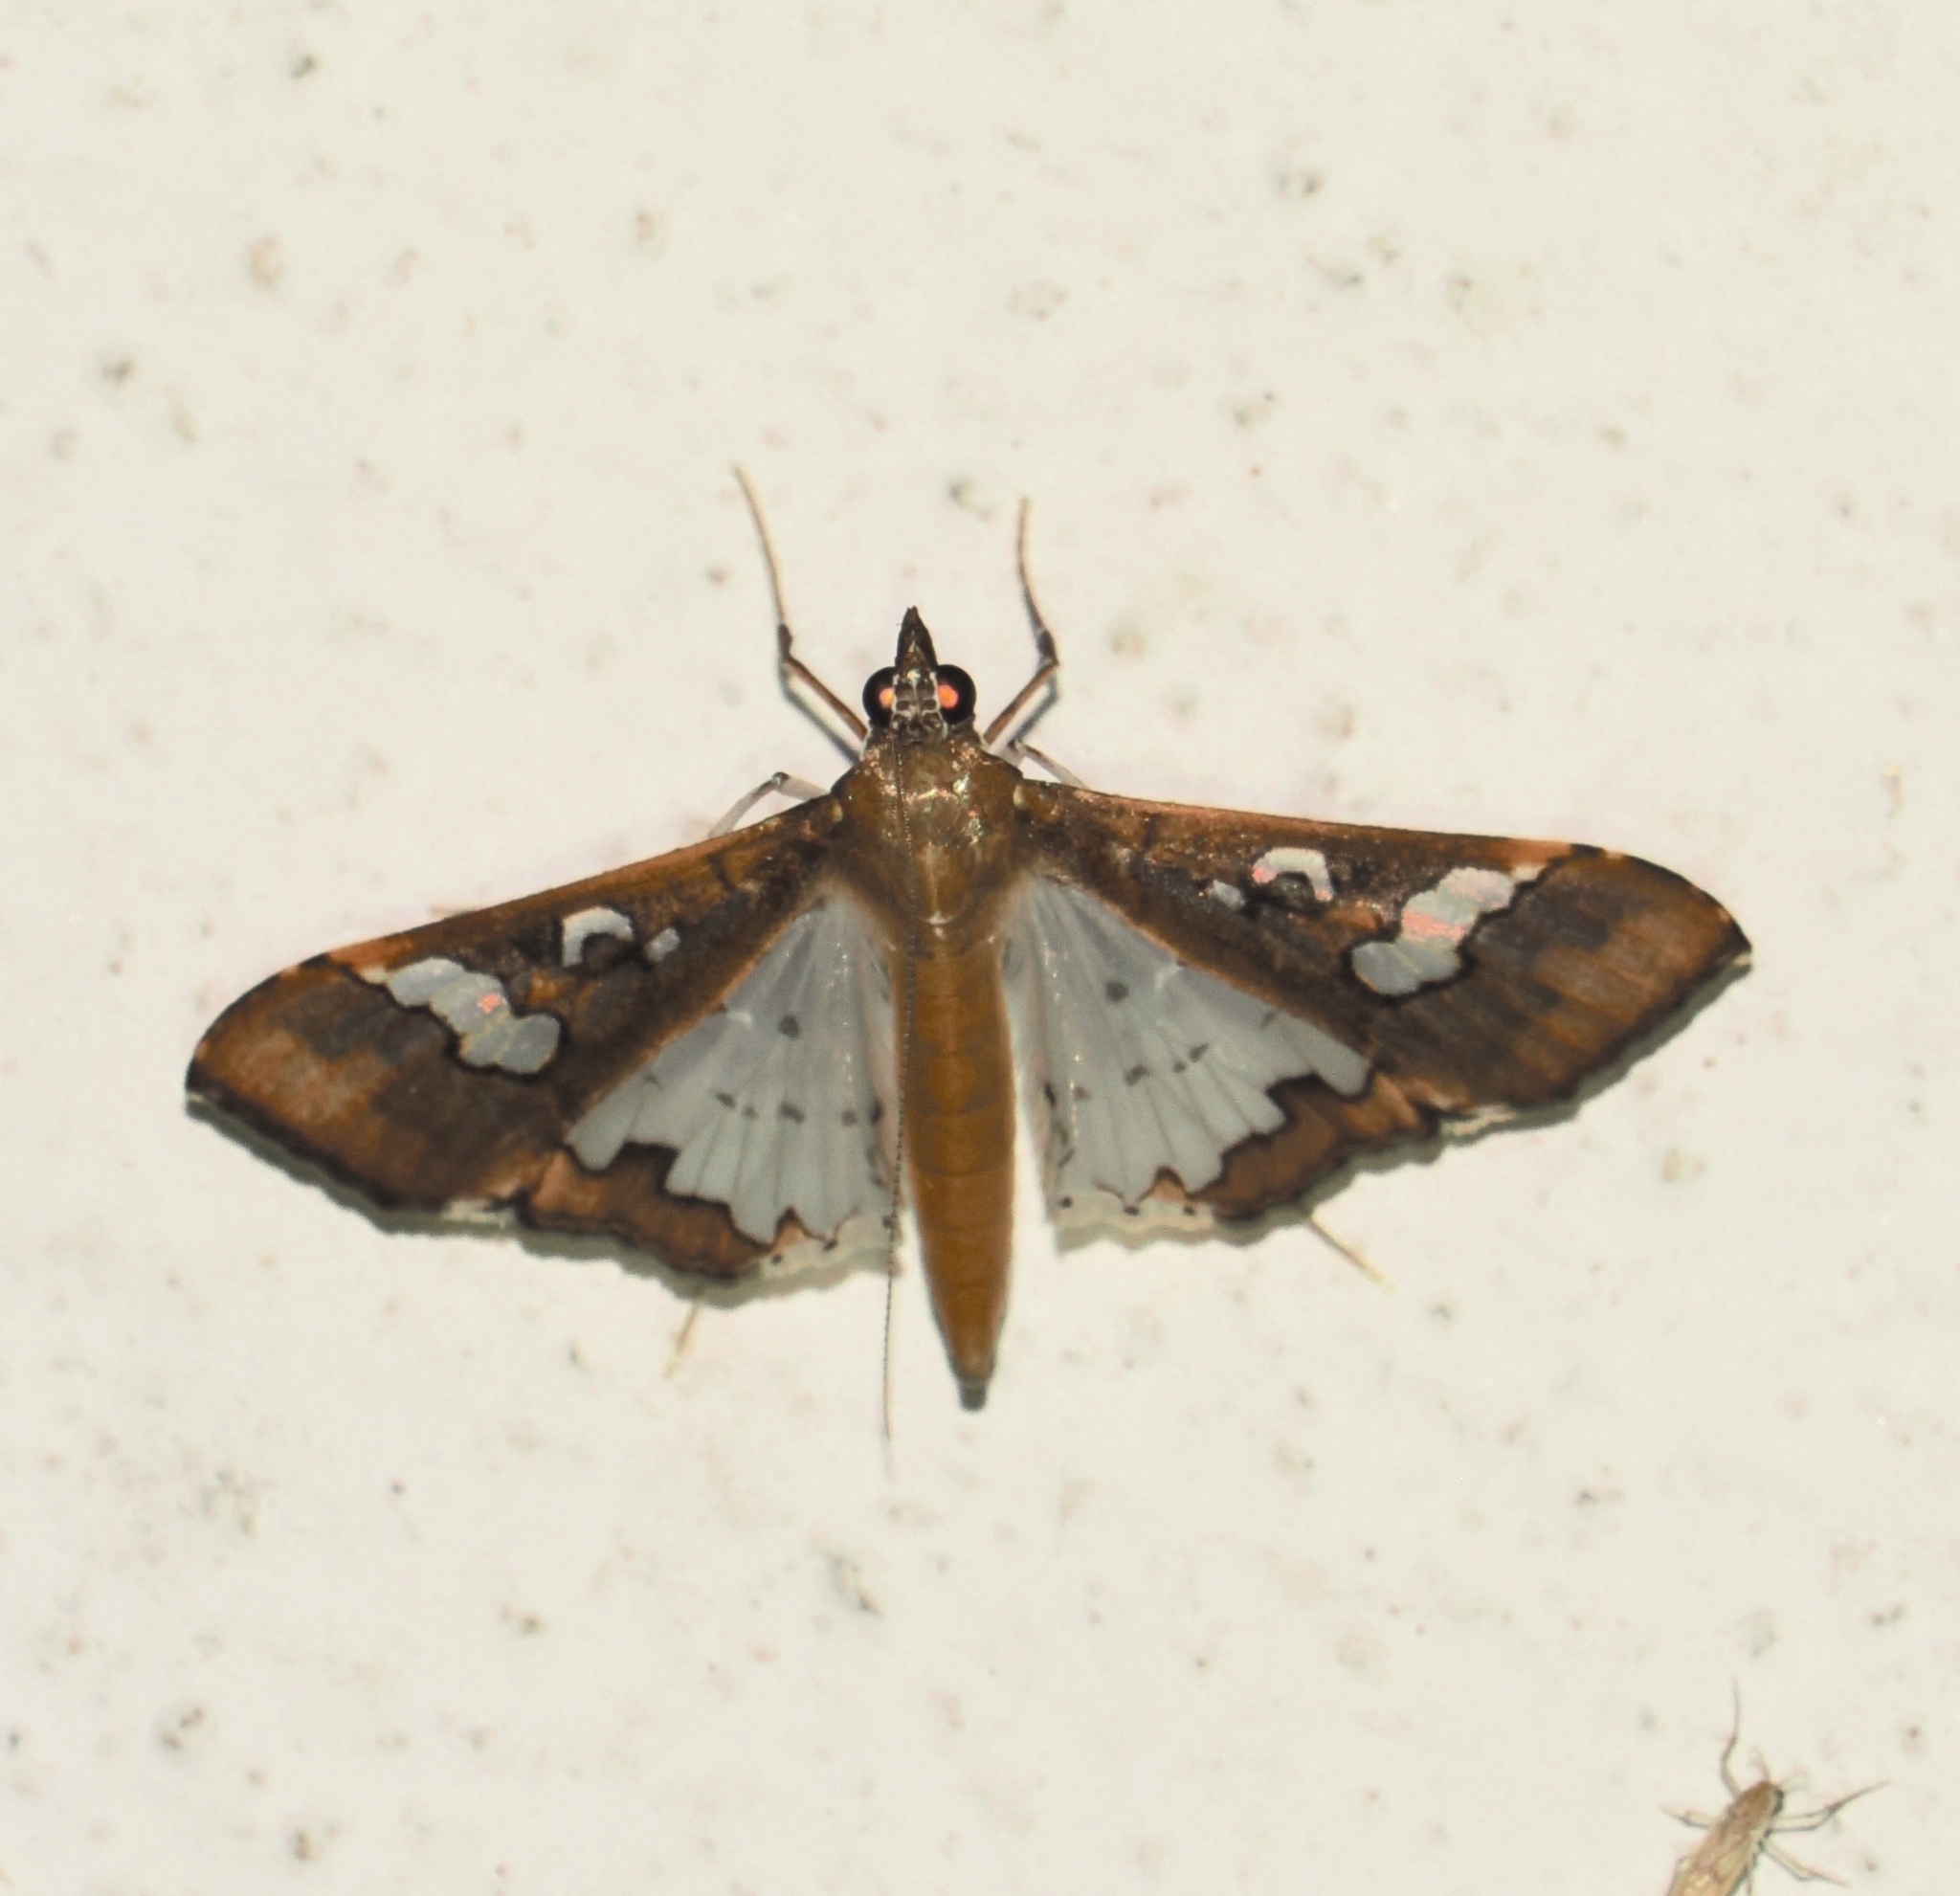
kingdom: Animalia
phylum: Arthropoda
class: Insecta
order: Lepidoptera
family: Crambidae
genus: Maruca
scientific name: Maruca vitrata
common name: Maruca pod borer
